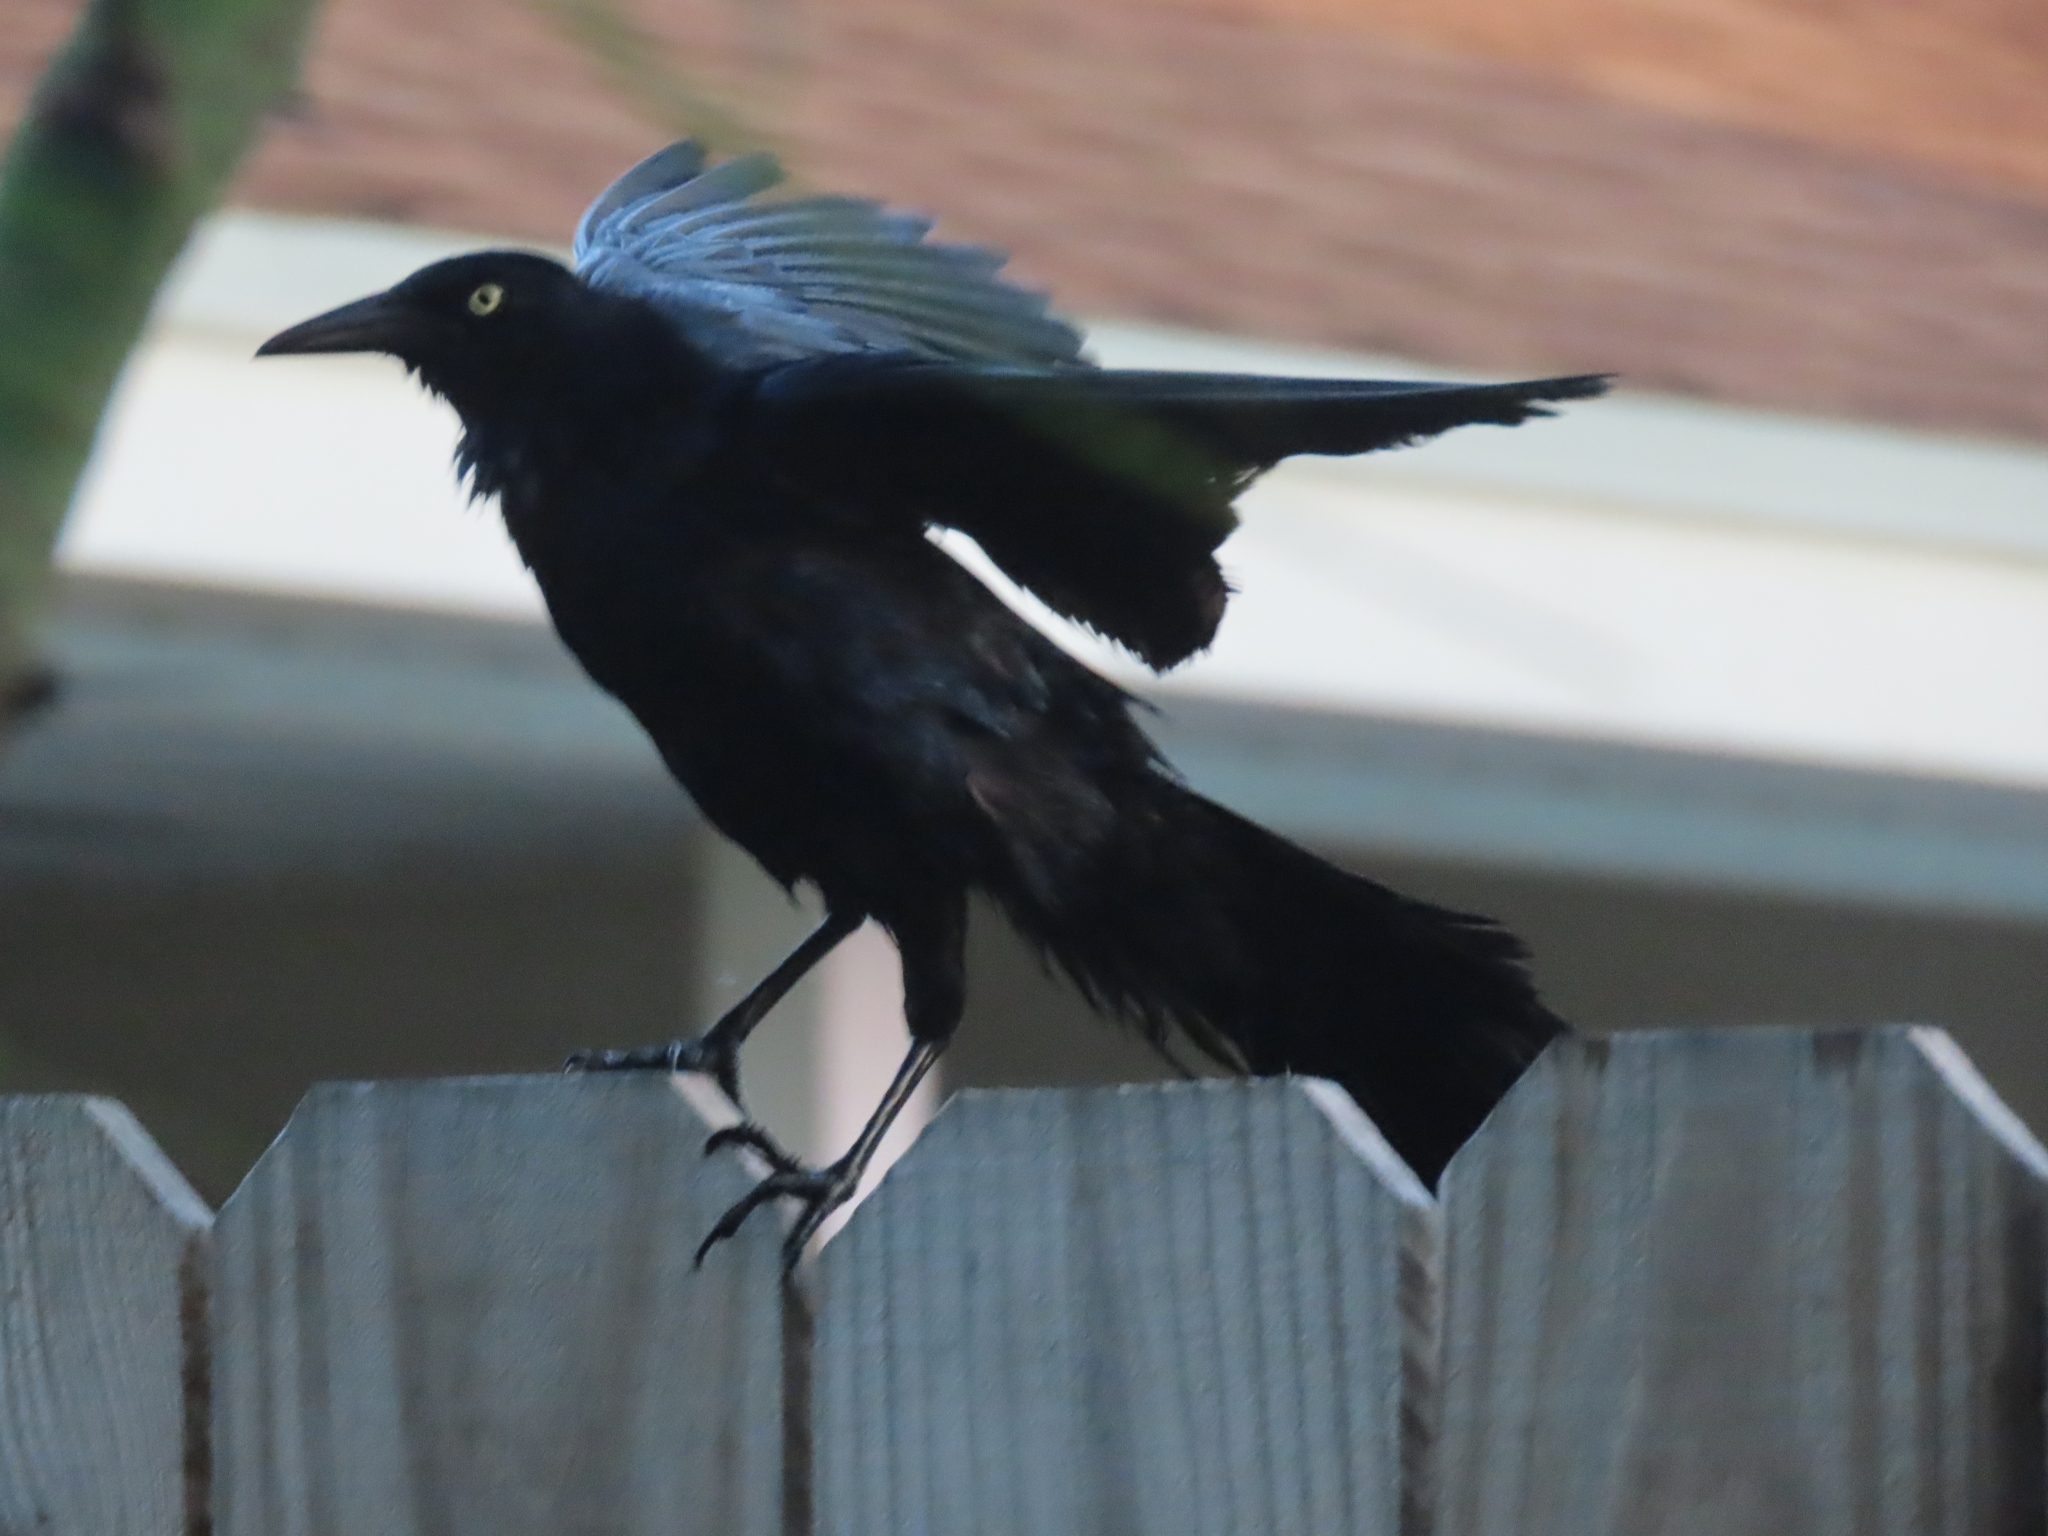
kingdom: Animalia
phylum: Chordata
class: Aves
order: Passeriformes
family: Icteridae
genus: Quiscalus
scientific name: Quiscalus mexicanus
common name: Great-tailed grackle
